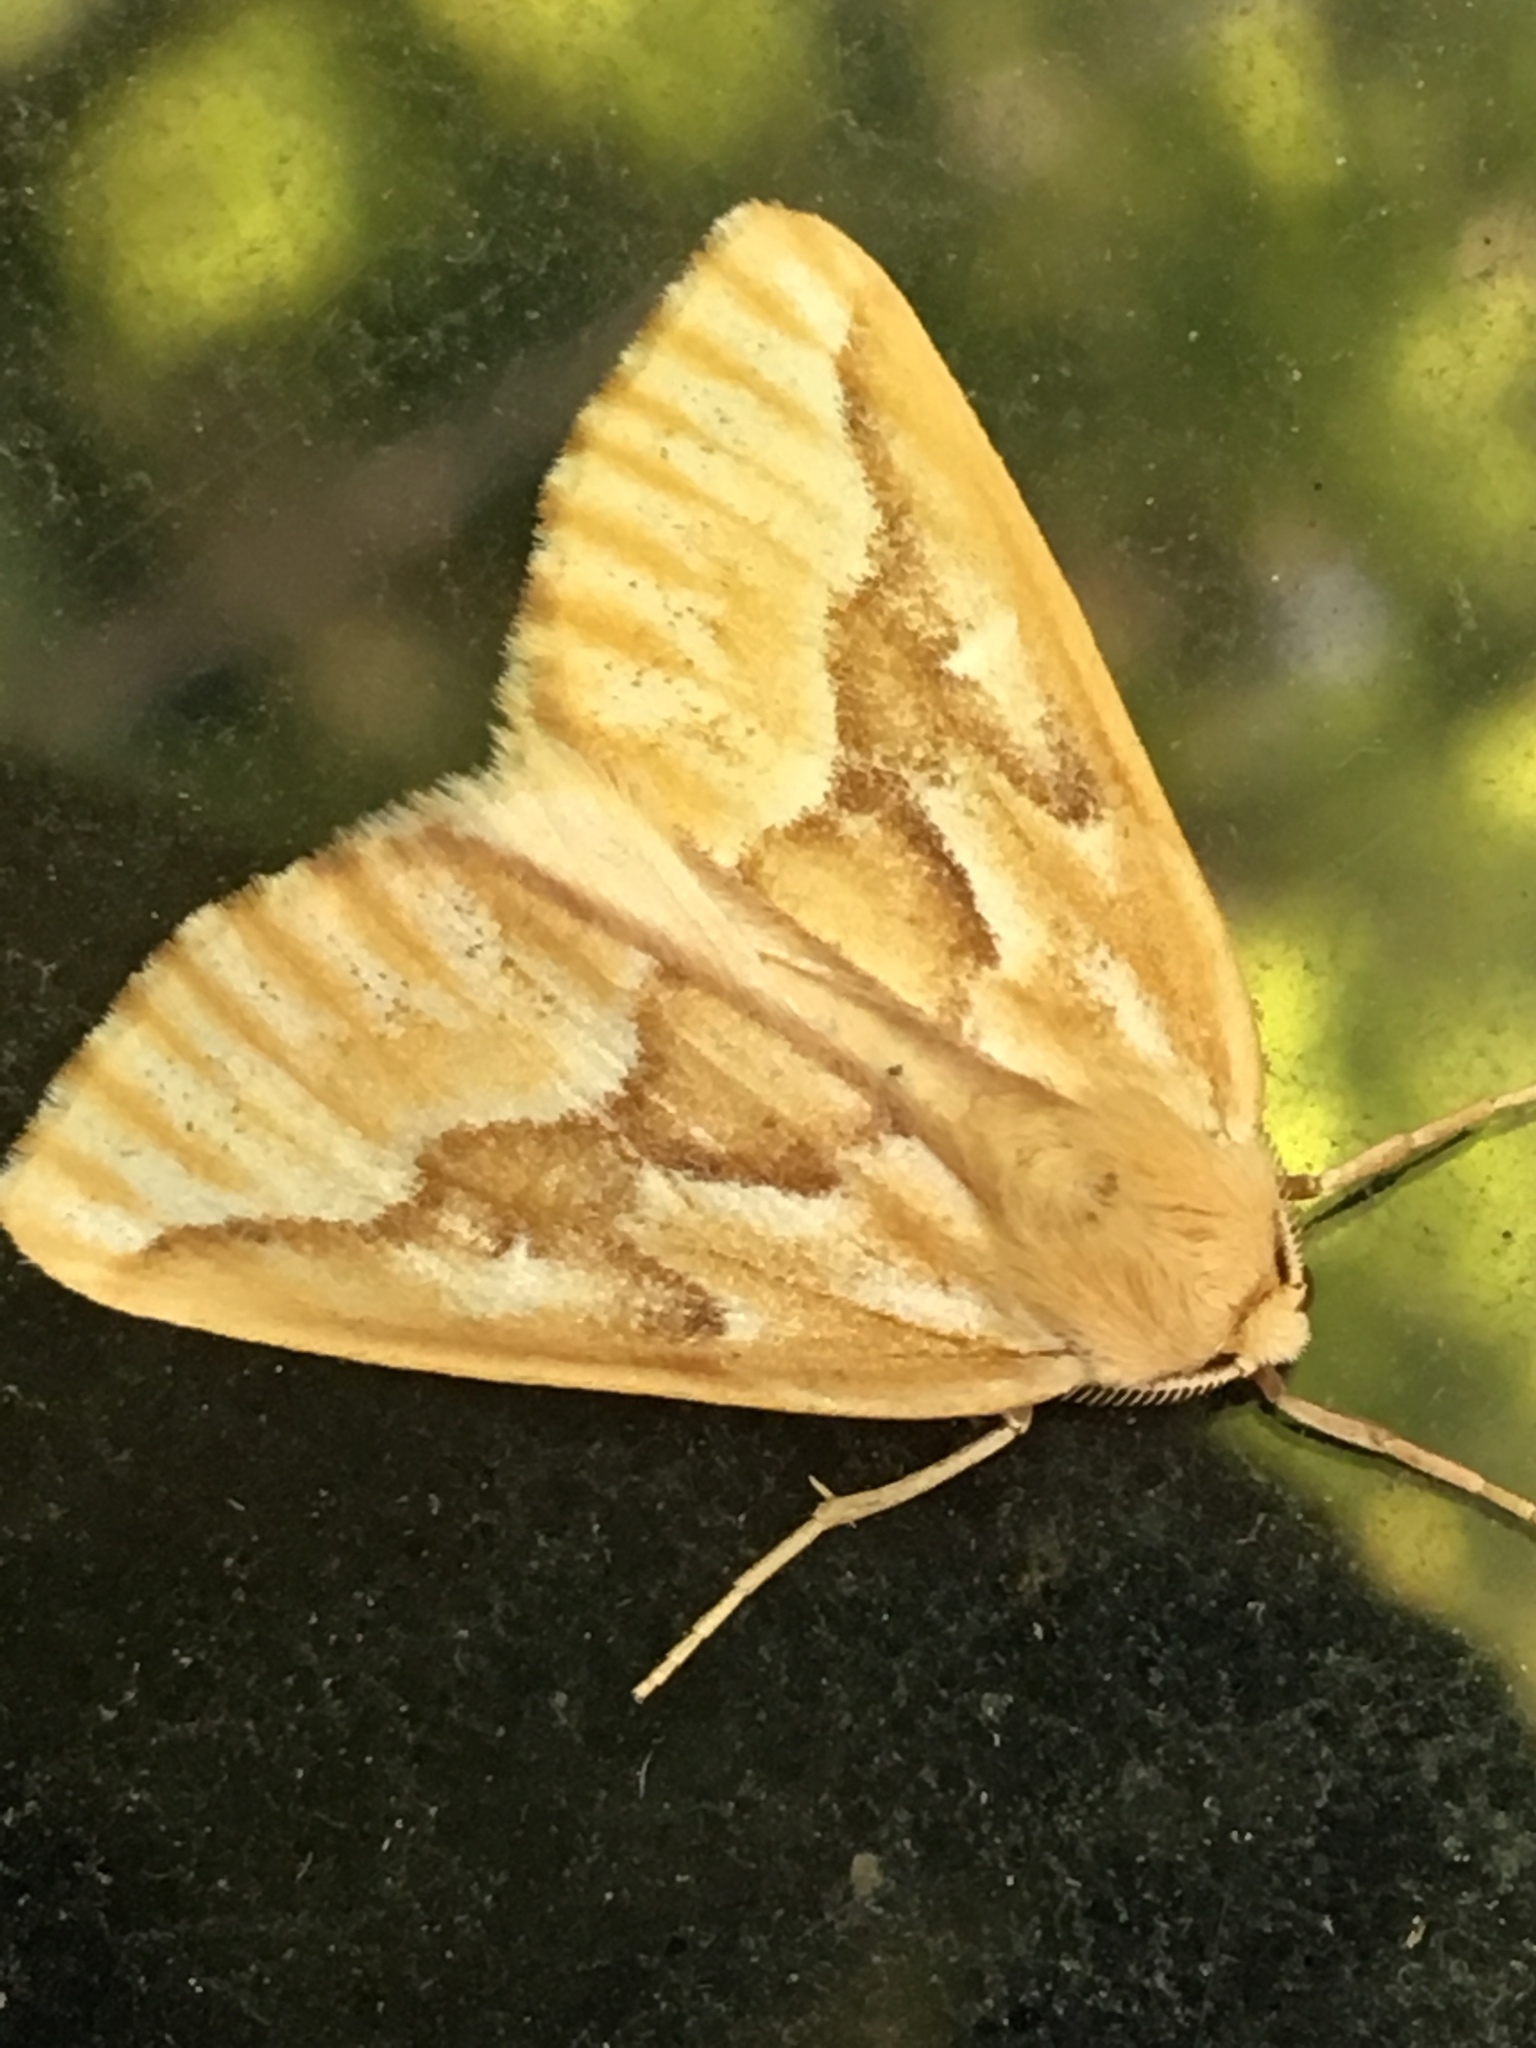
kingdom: Animalia
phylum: Arthropoda
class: Insecta
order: Lepidoptera
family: Geometridae
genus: Caripeta
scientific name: Caripeta piniata
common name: Northern pine looper moth
